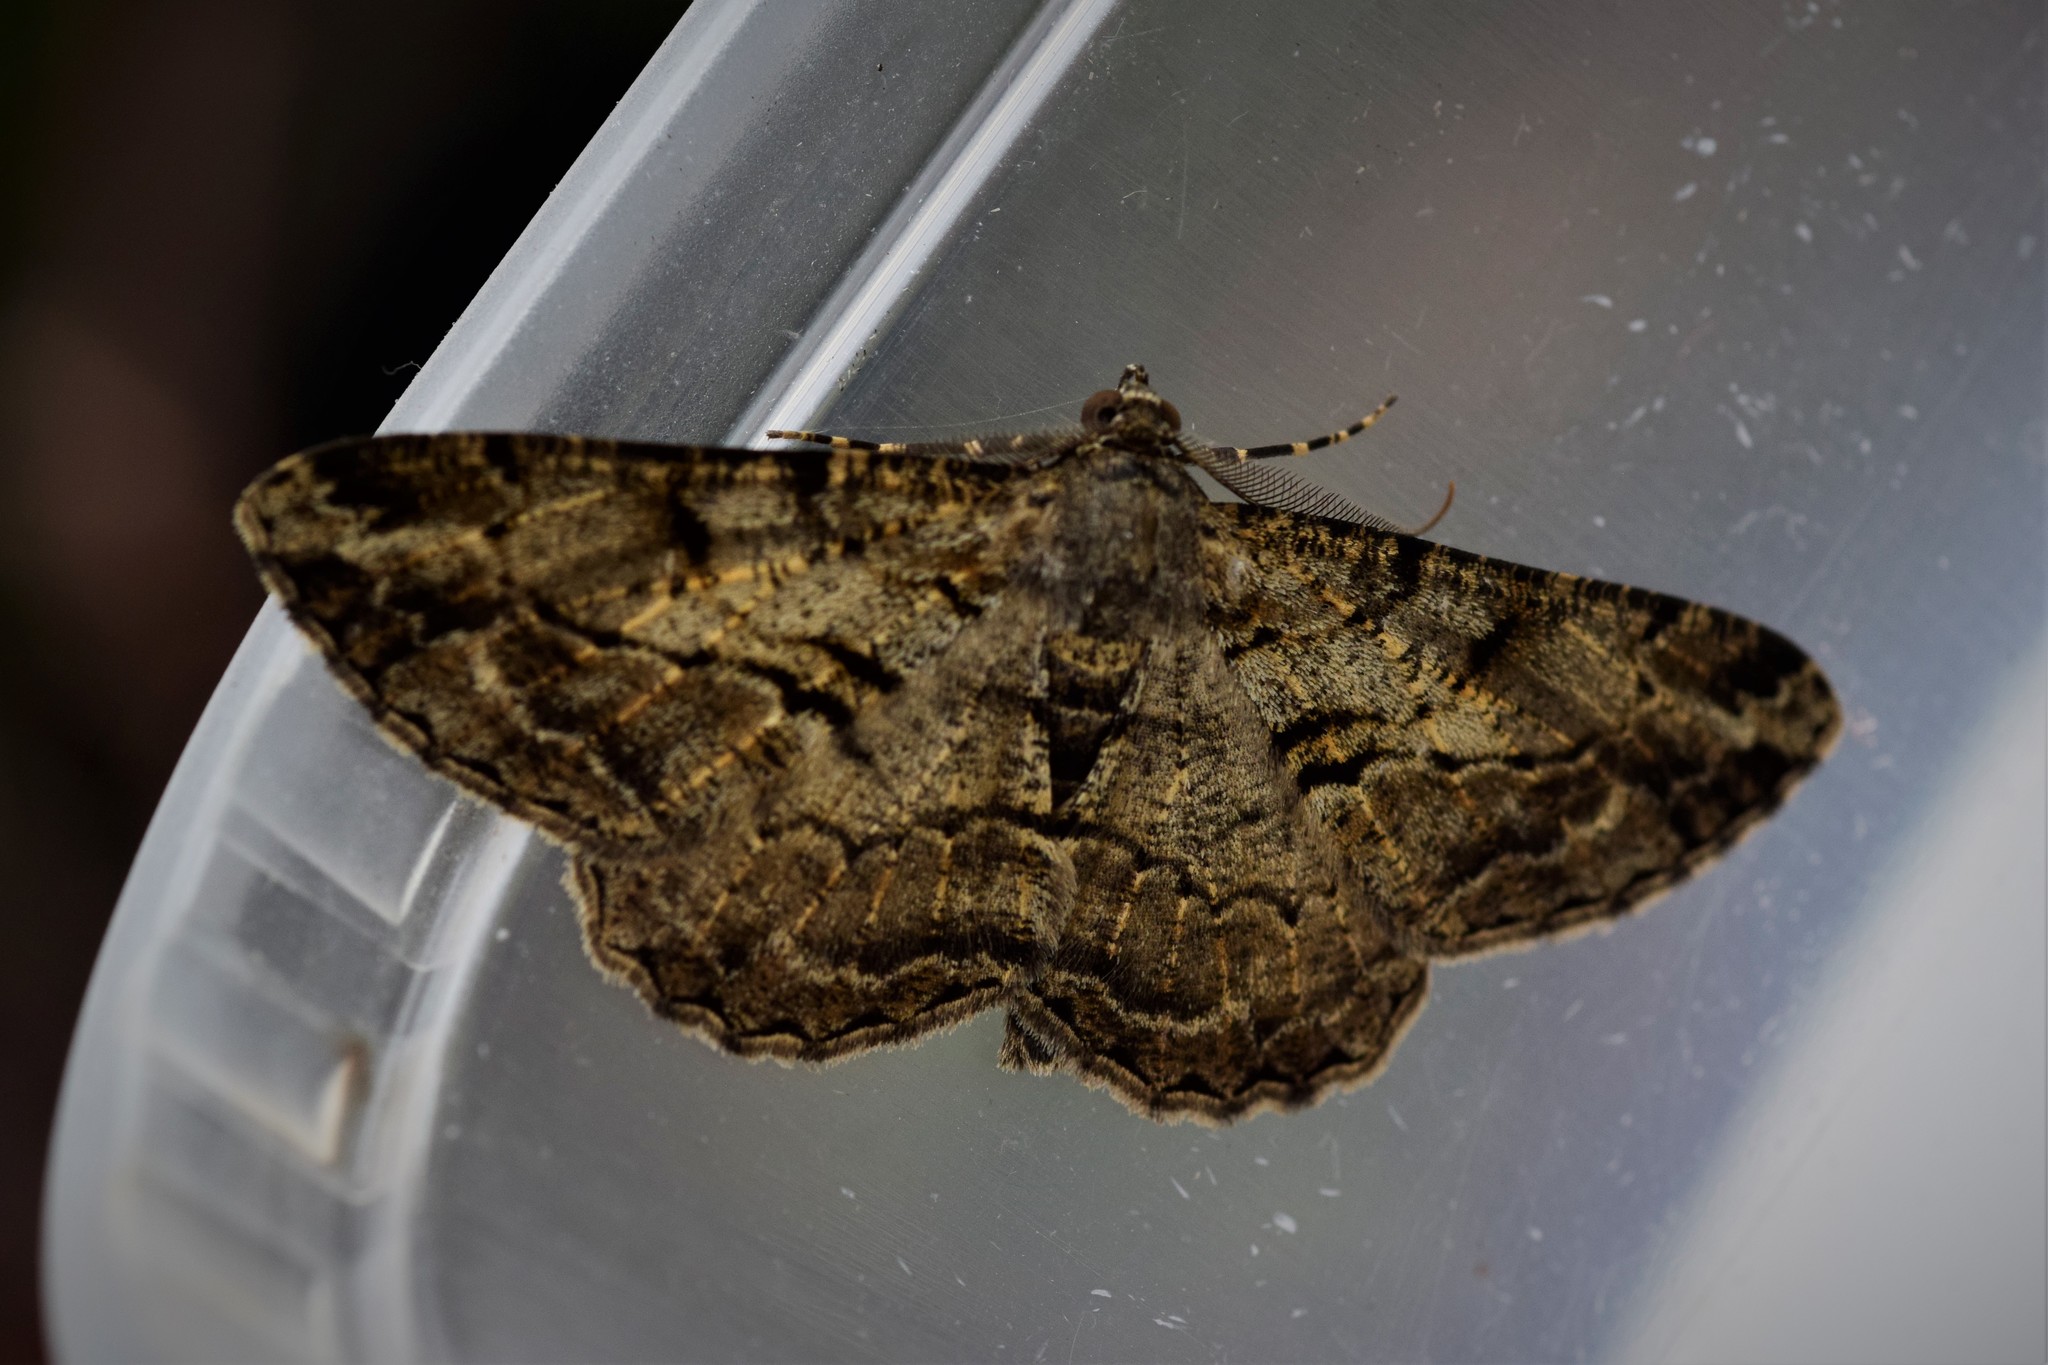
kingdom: Animalia
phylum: Arthropoda
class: Insecta
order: Lepidoptera
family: Geometridae
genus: Peribatodes
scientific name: Peribatodes rhomboidaria
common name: Willow beauty
